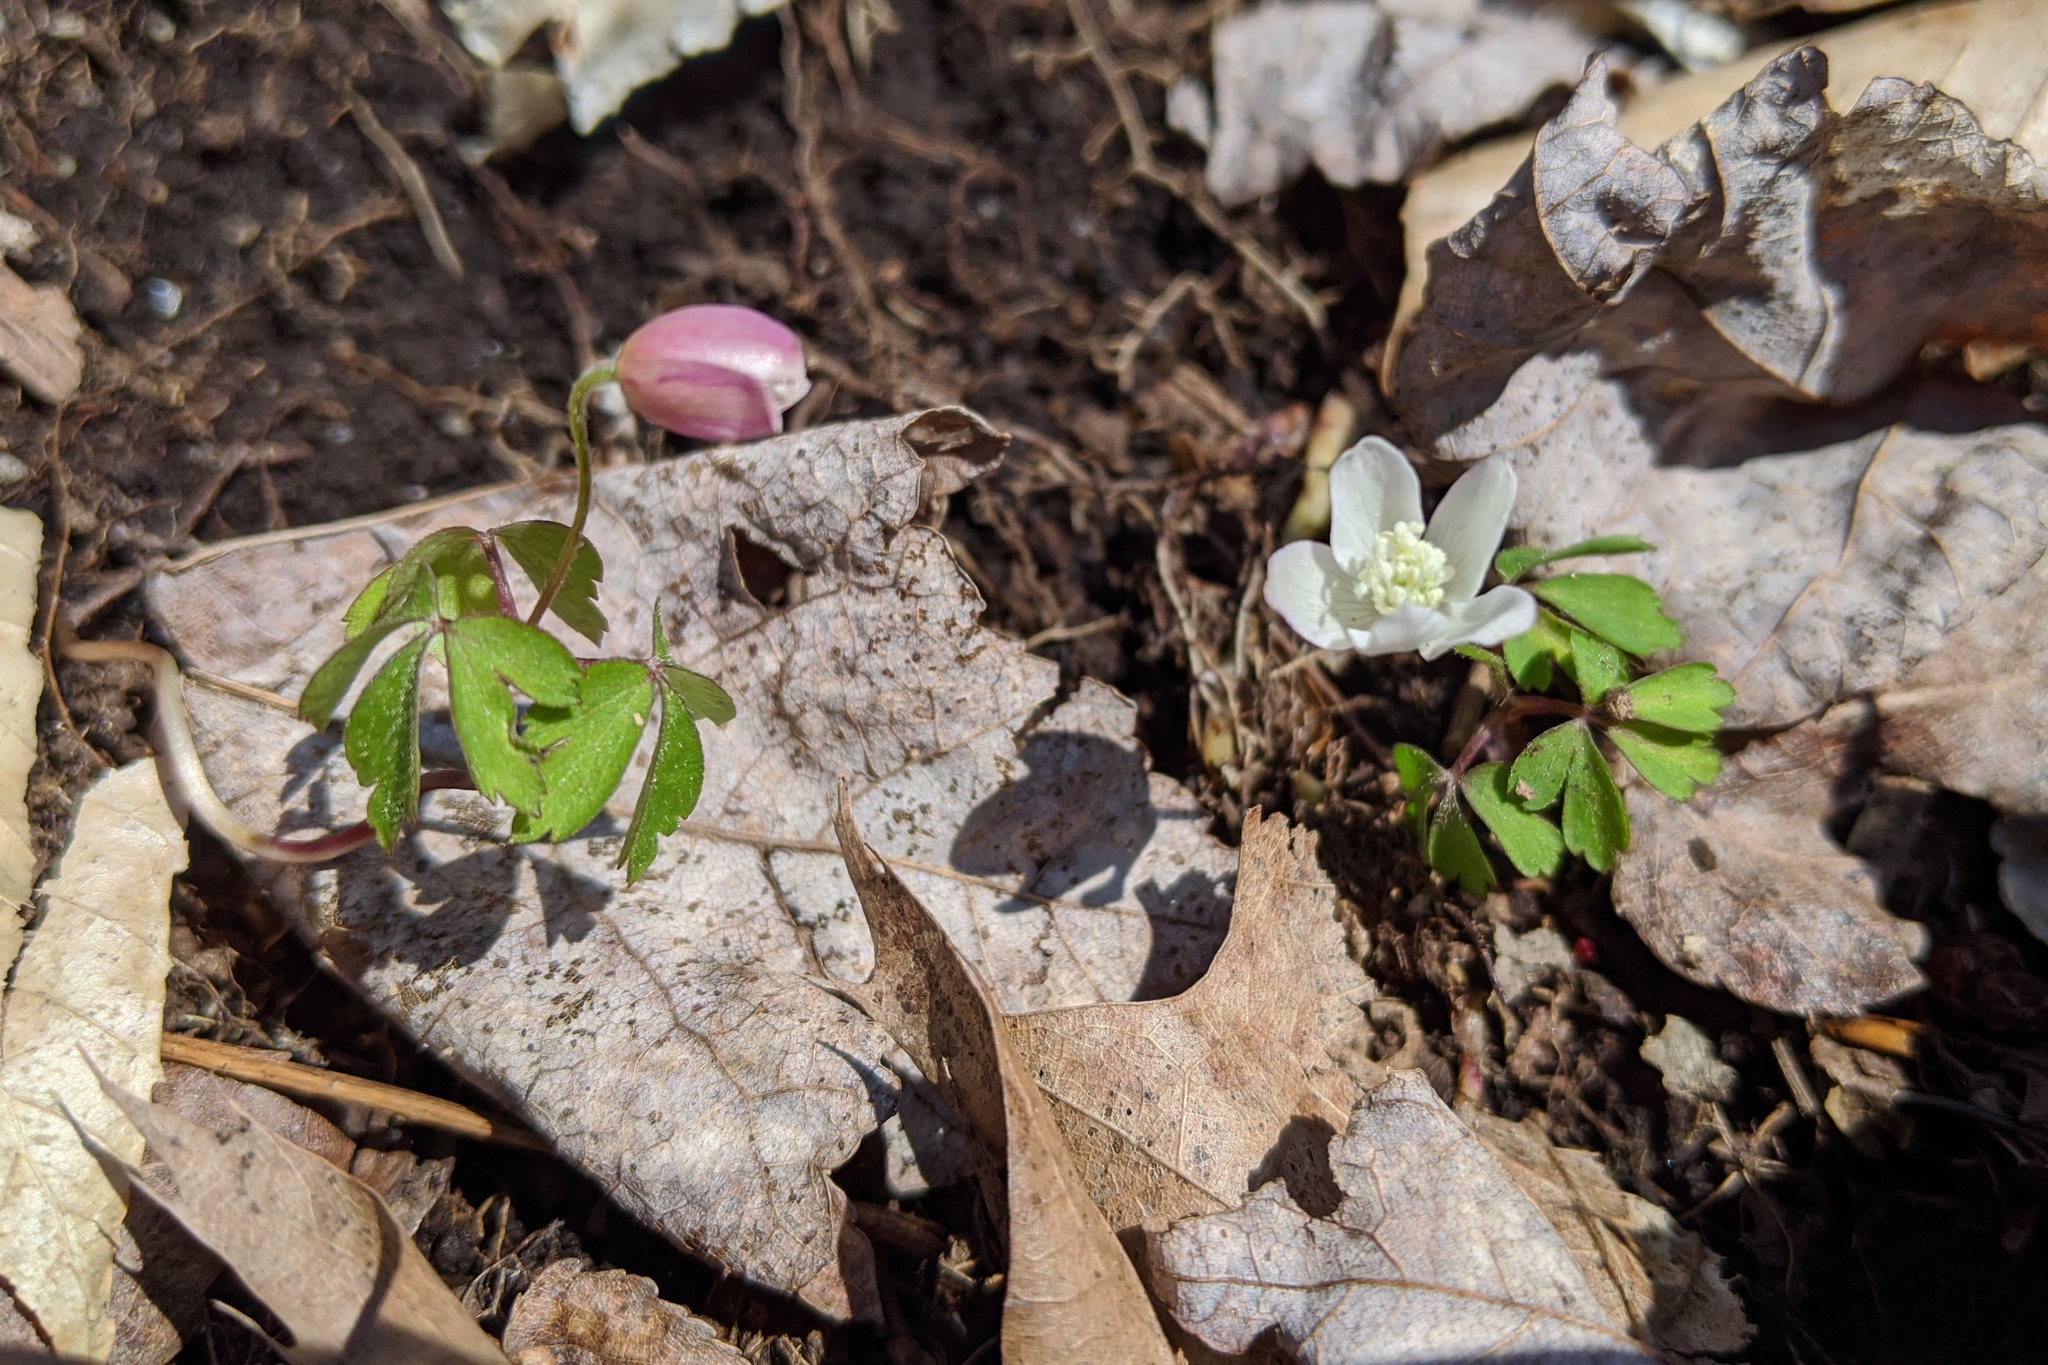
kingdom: Plantae
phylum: Tracheophyta
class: Magnoliopsida
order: Ranunculales
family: Ranunculaceae
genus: Anemone
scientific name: Anemone quinquefolia
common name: Wood anemone
